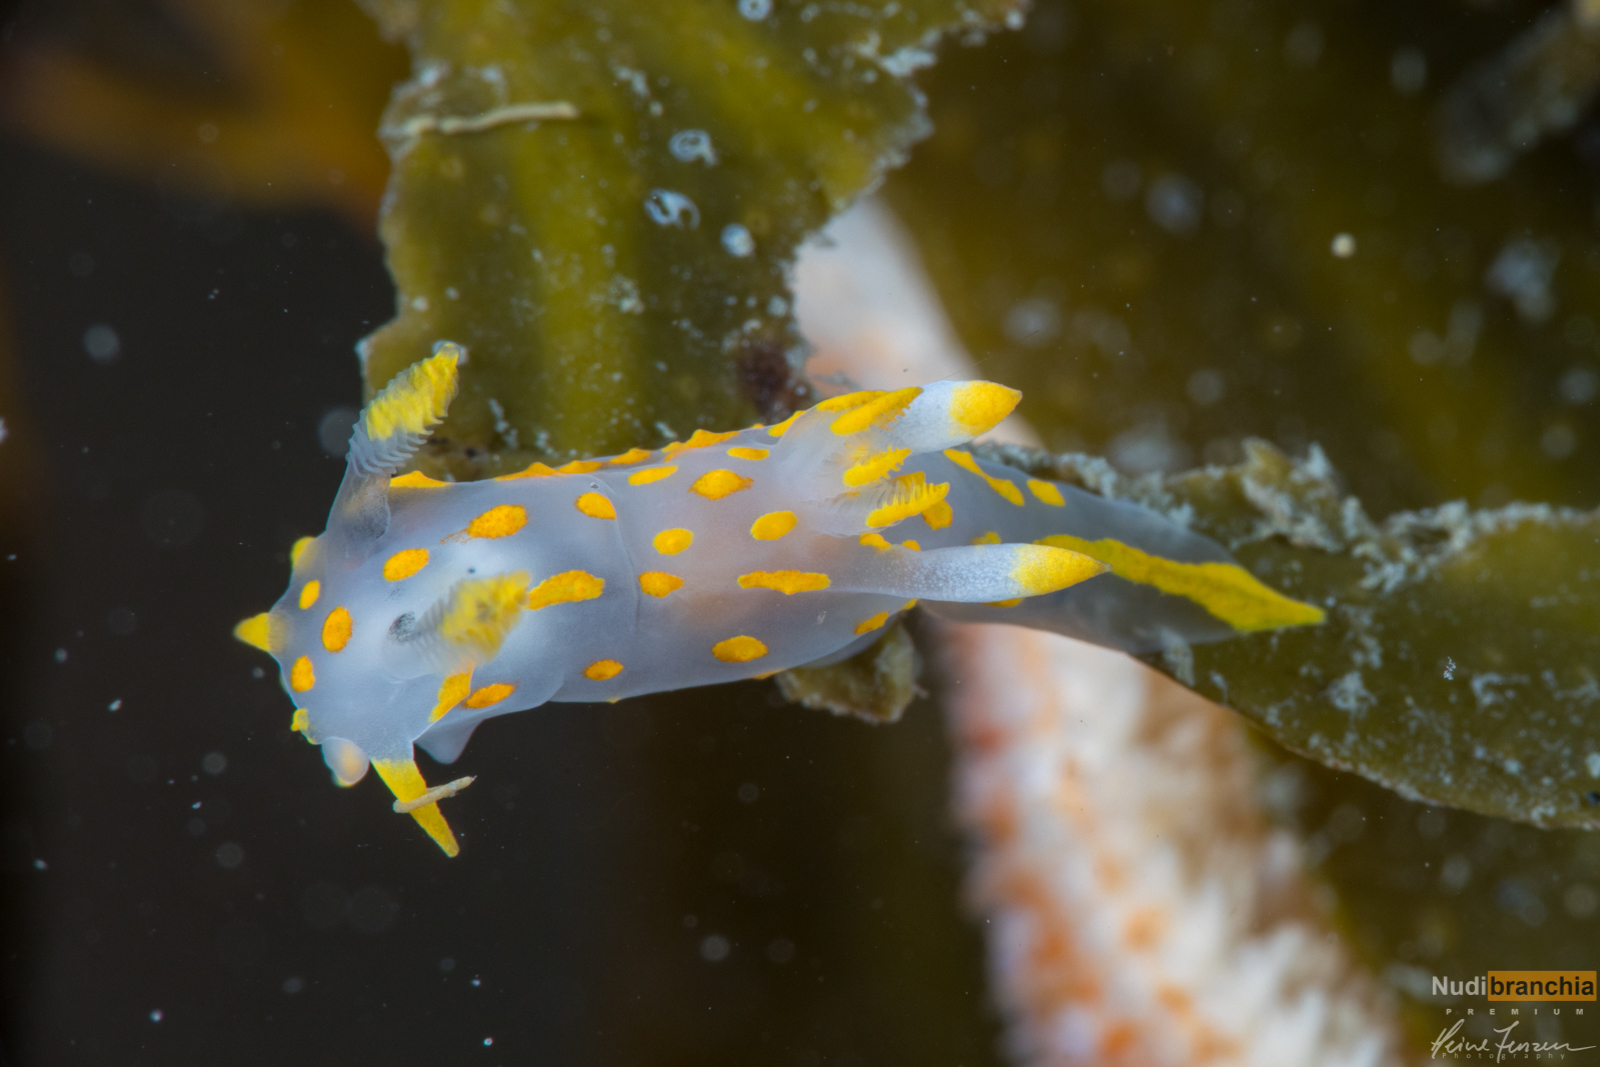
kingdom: Animalia
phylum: Mollusca
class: Gastropoda
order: Nudibranchia
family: Polyceridae
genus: Polycera
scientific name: Polycera quadrilineata
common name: Four-striped polycera
